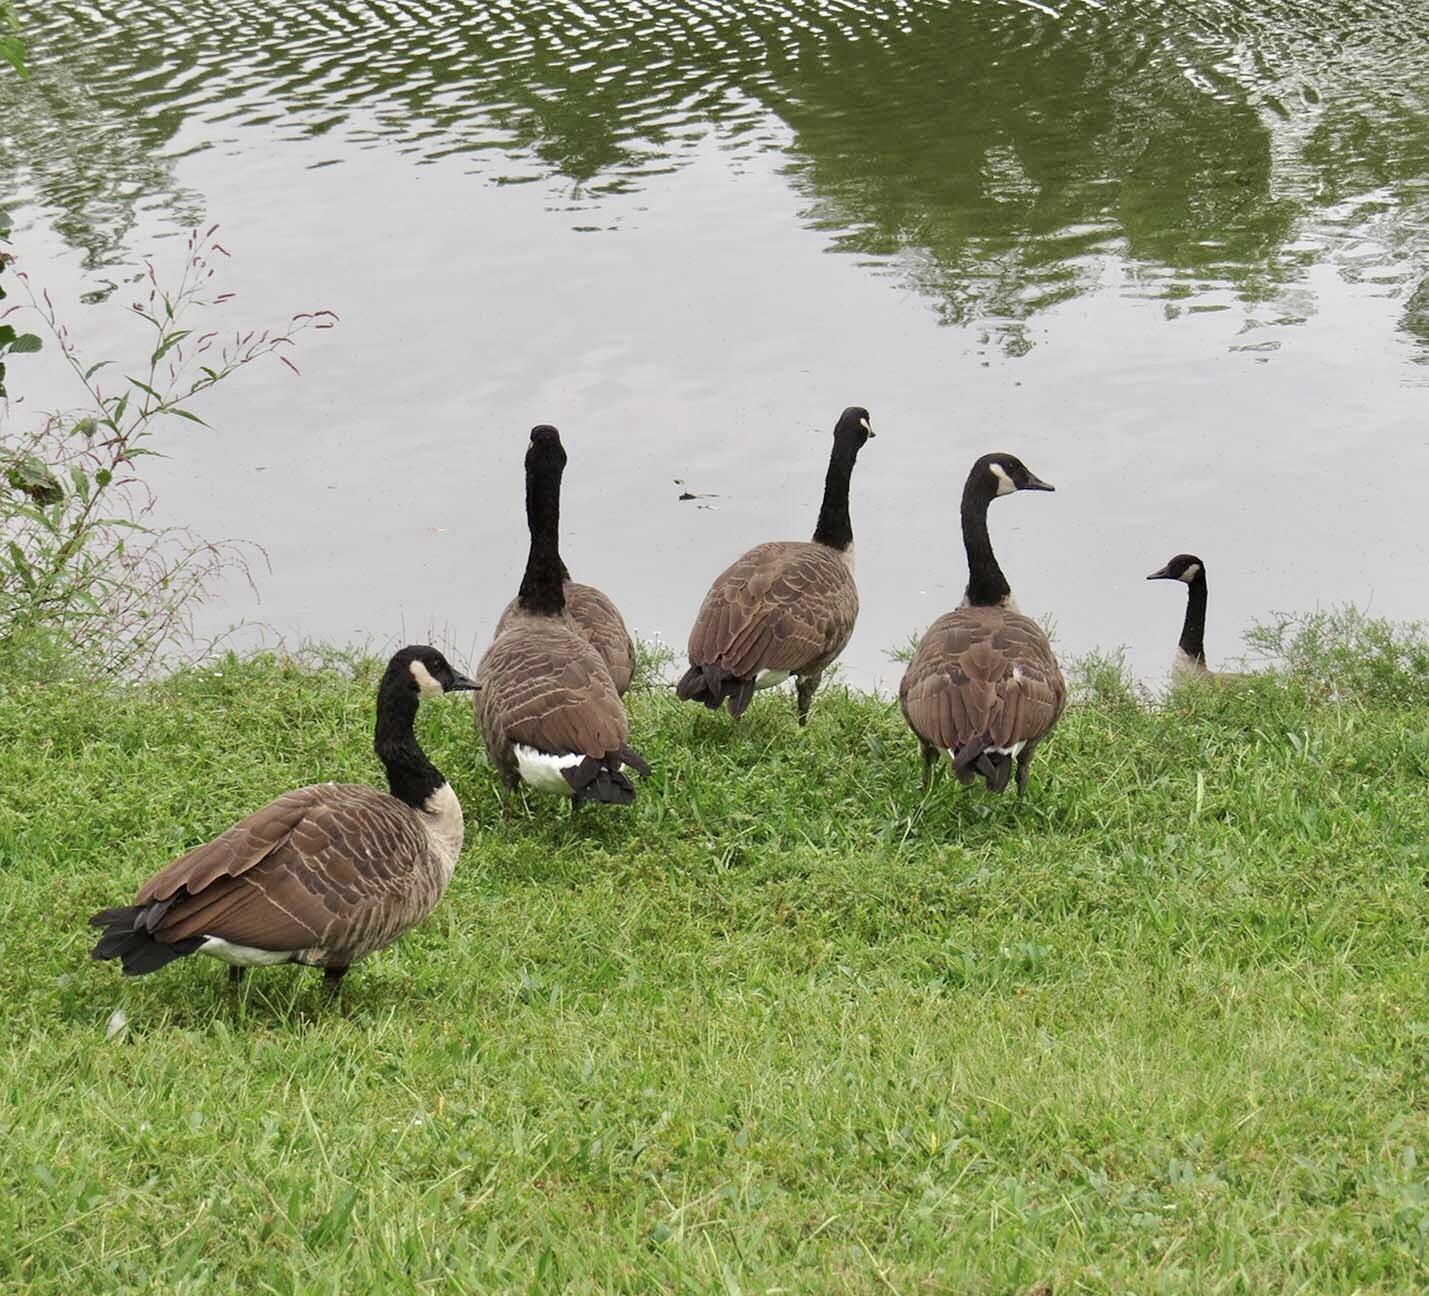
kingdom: Animalia
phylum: Chordata
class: Aves
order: Anseriformes
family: Anatidae
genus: Branta
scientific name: Branta canadensis
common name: Canada goose
